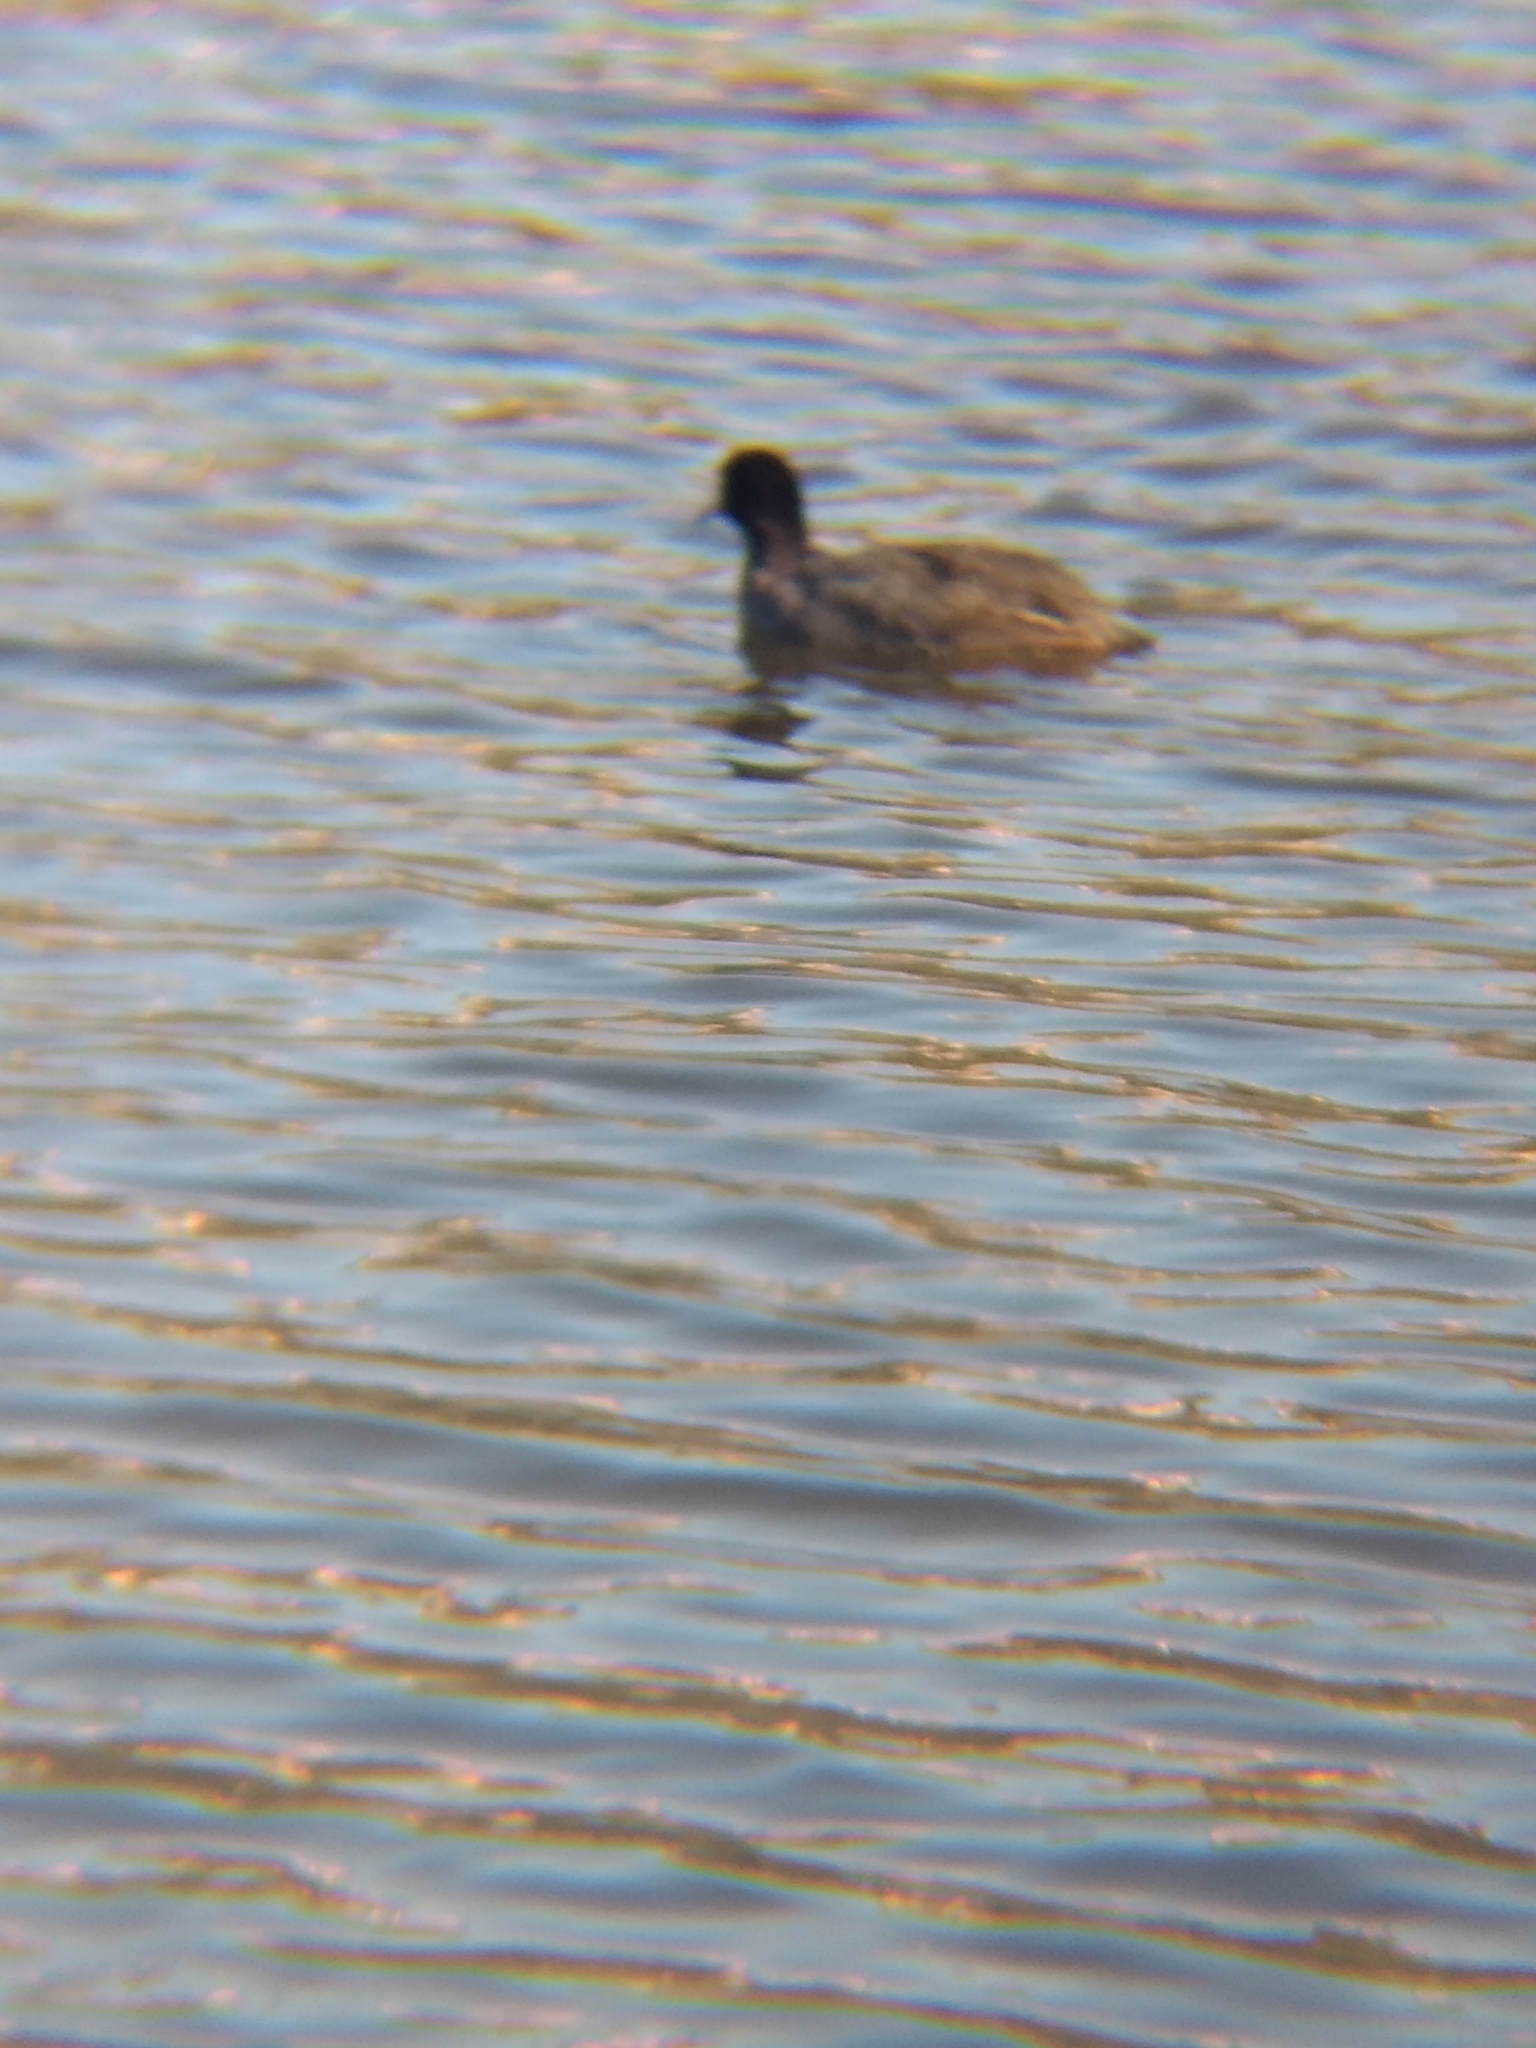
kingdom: Animalia
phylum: Chordata
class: Aves
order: Gruiformes
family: Rallidae
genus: Fulica
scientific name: Fulica americana
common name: American coot
